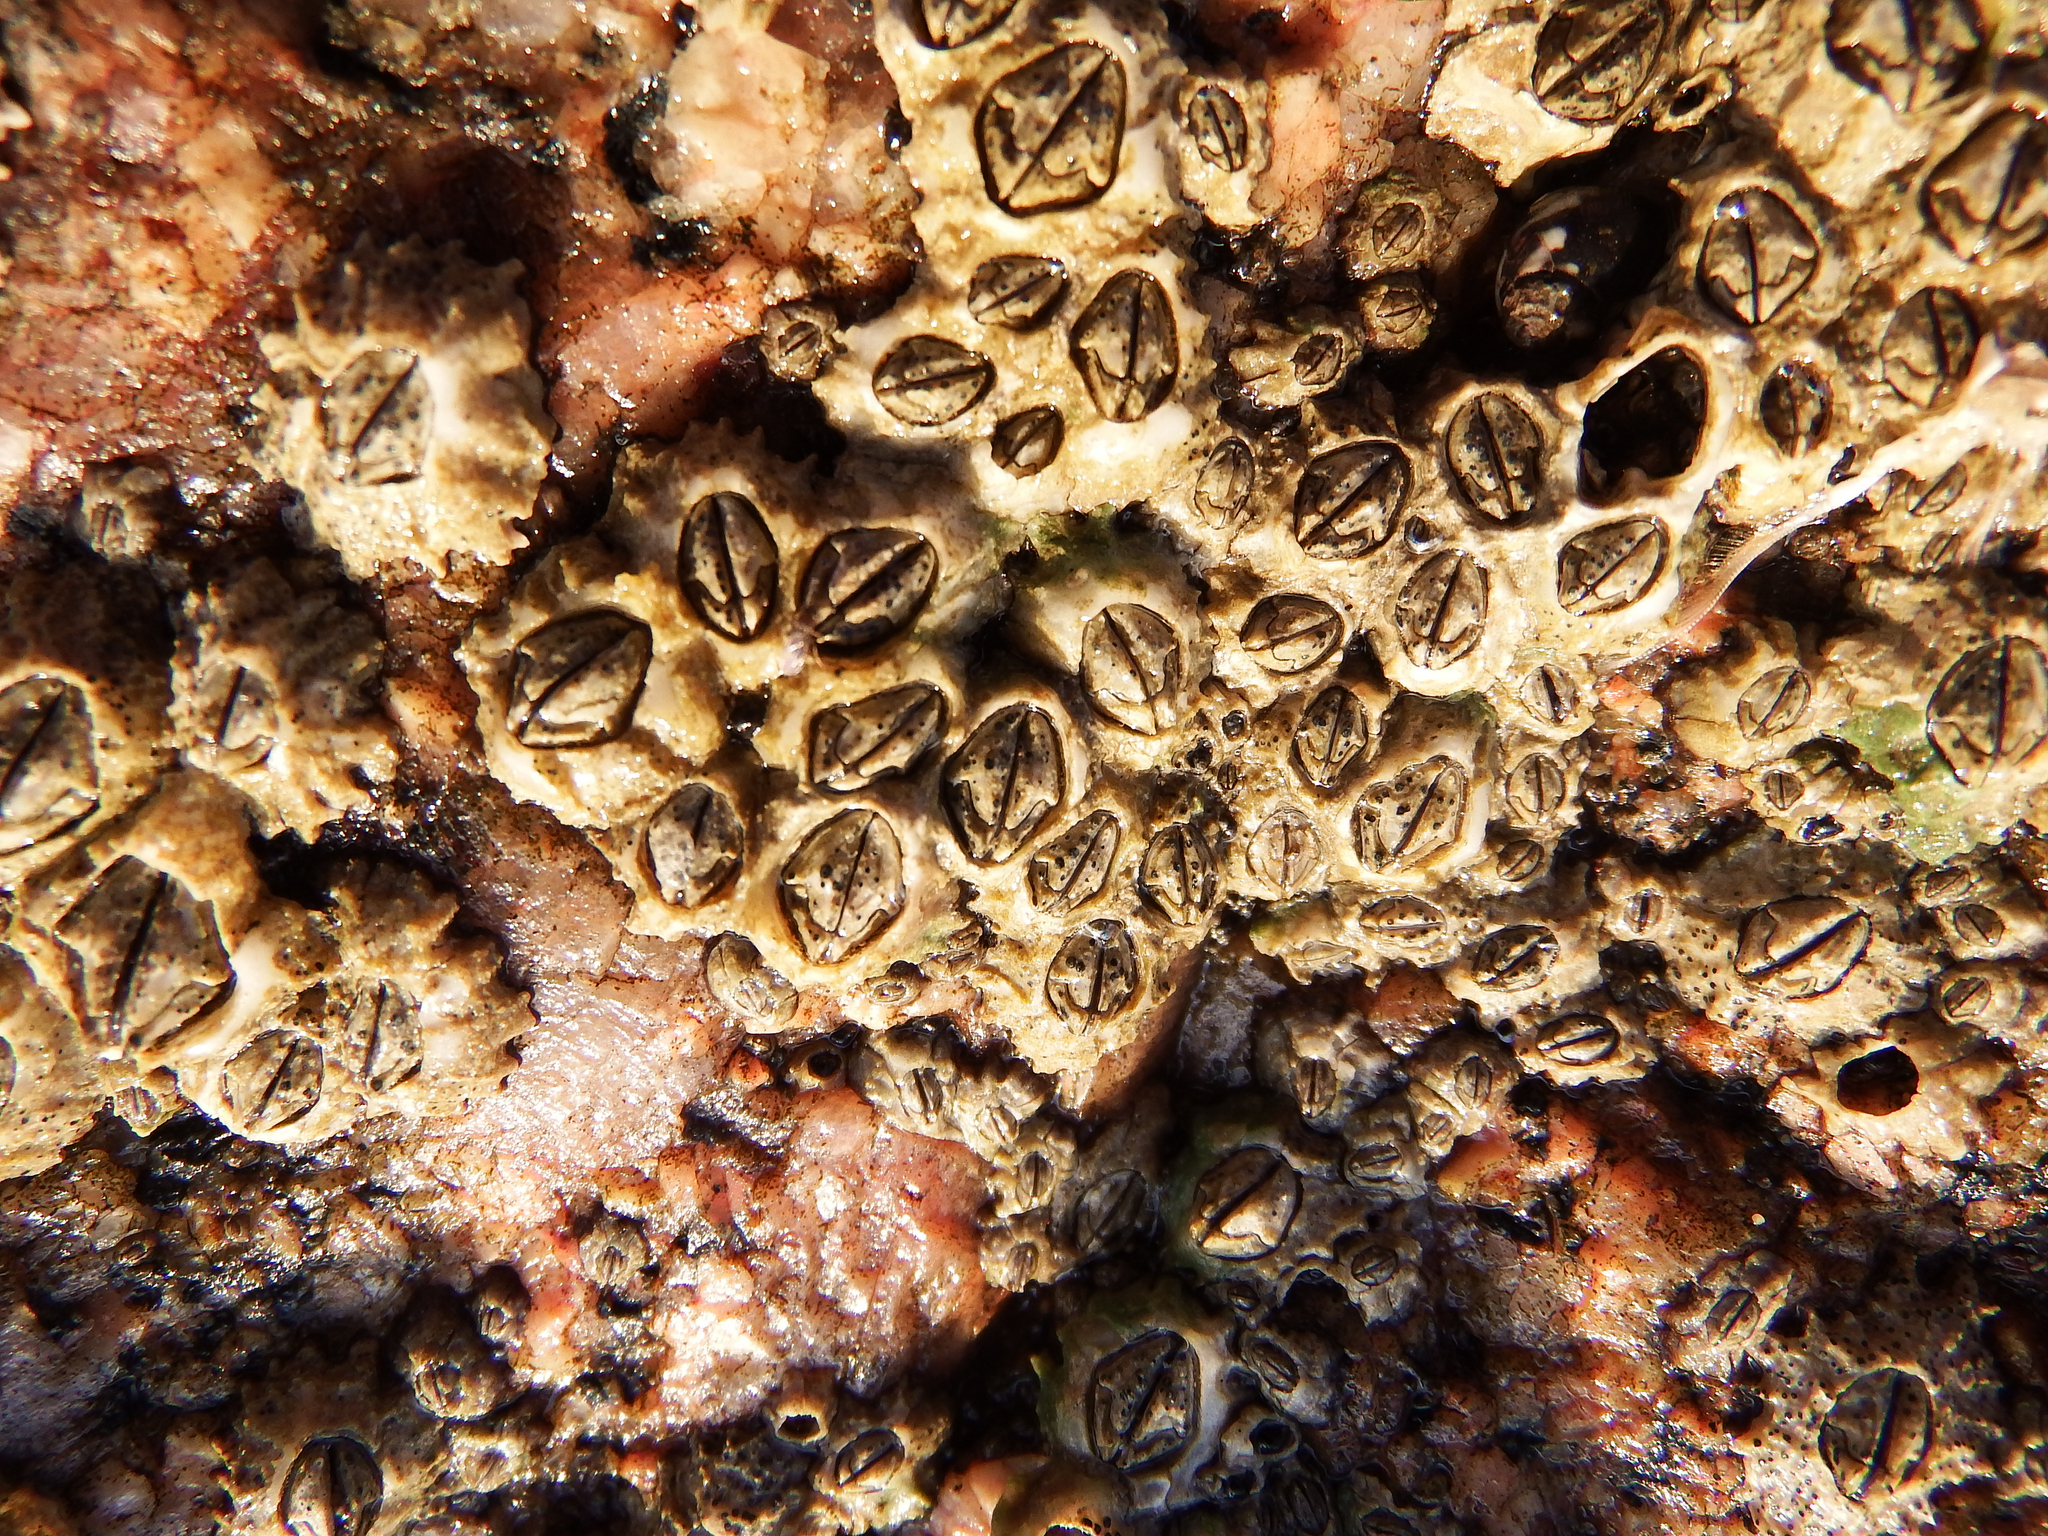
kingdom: Animalia
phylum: Arthropoda
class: Maxillopoda
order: Sessilia
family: Chthamalidae
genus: Jehlius
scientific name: Jehlius cirratus
